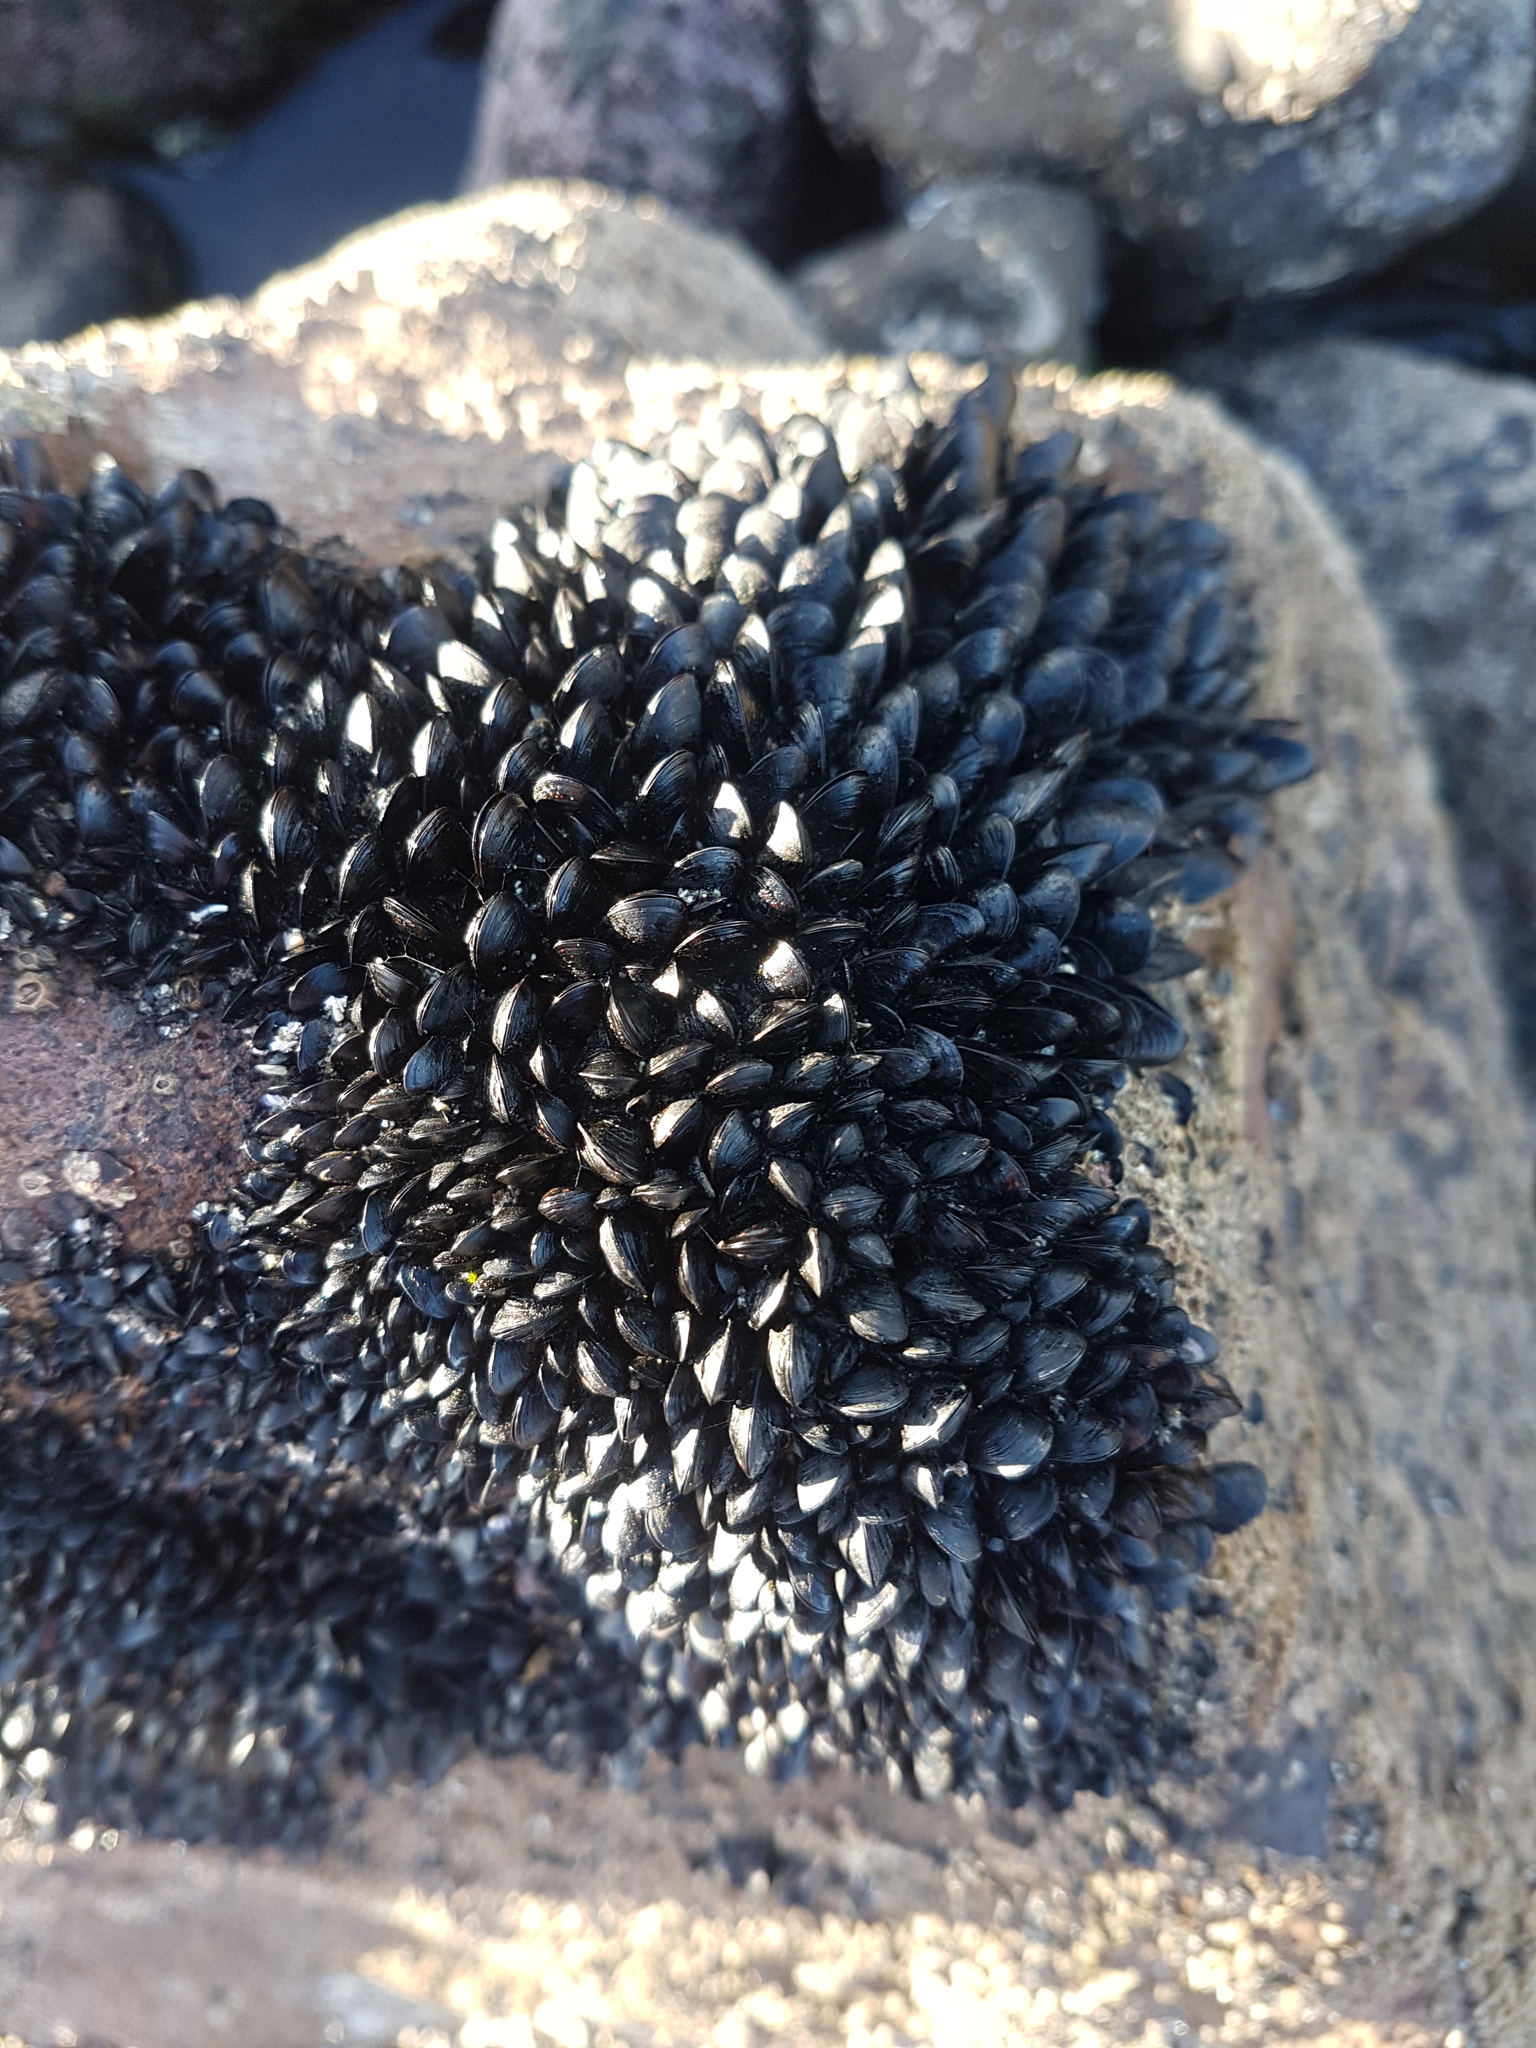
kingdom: Animalia
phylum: Mollusca
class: Bivalvia
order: Mytilida
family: Mytilidae
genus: Xenostrobus
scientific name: Xenostrobus neozelanicus
